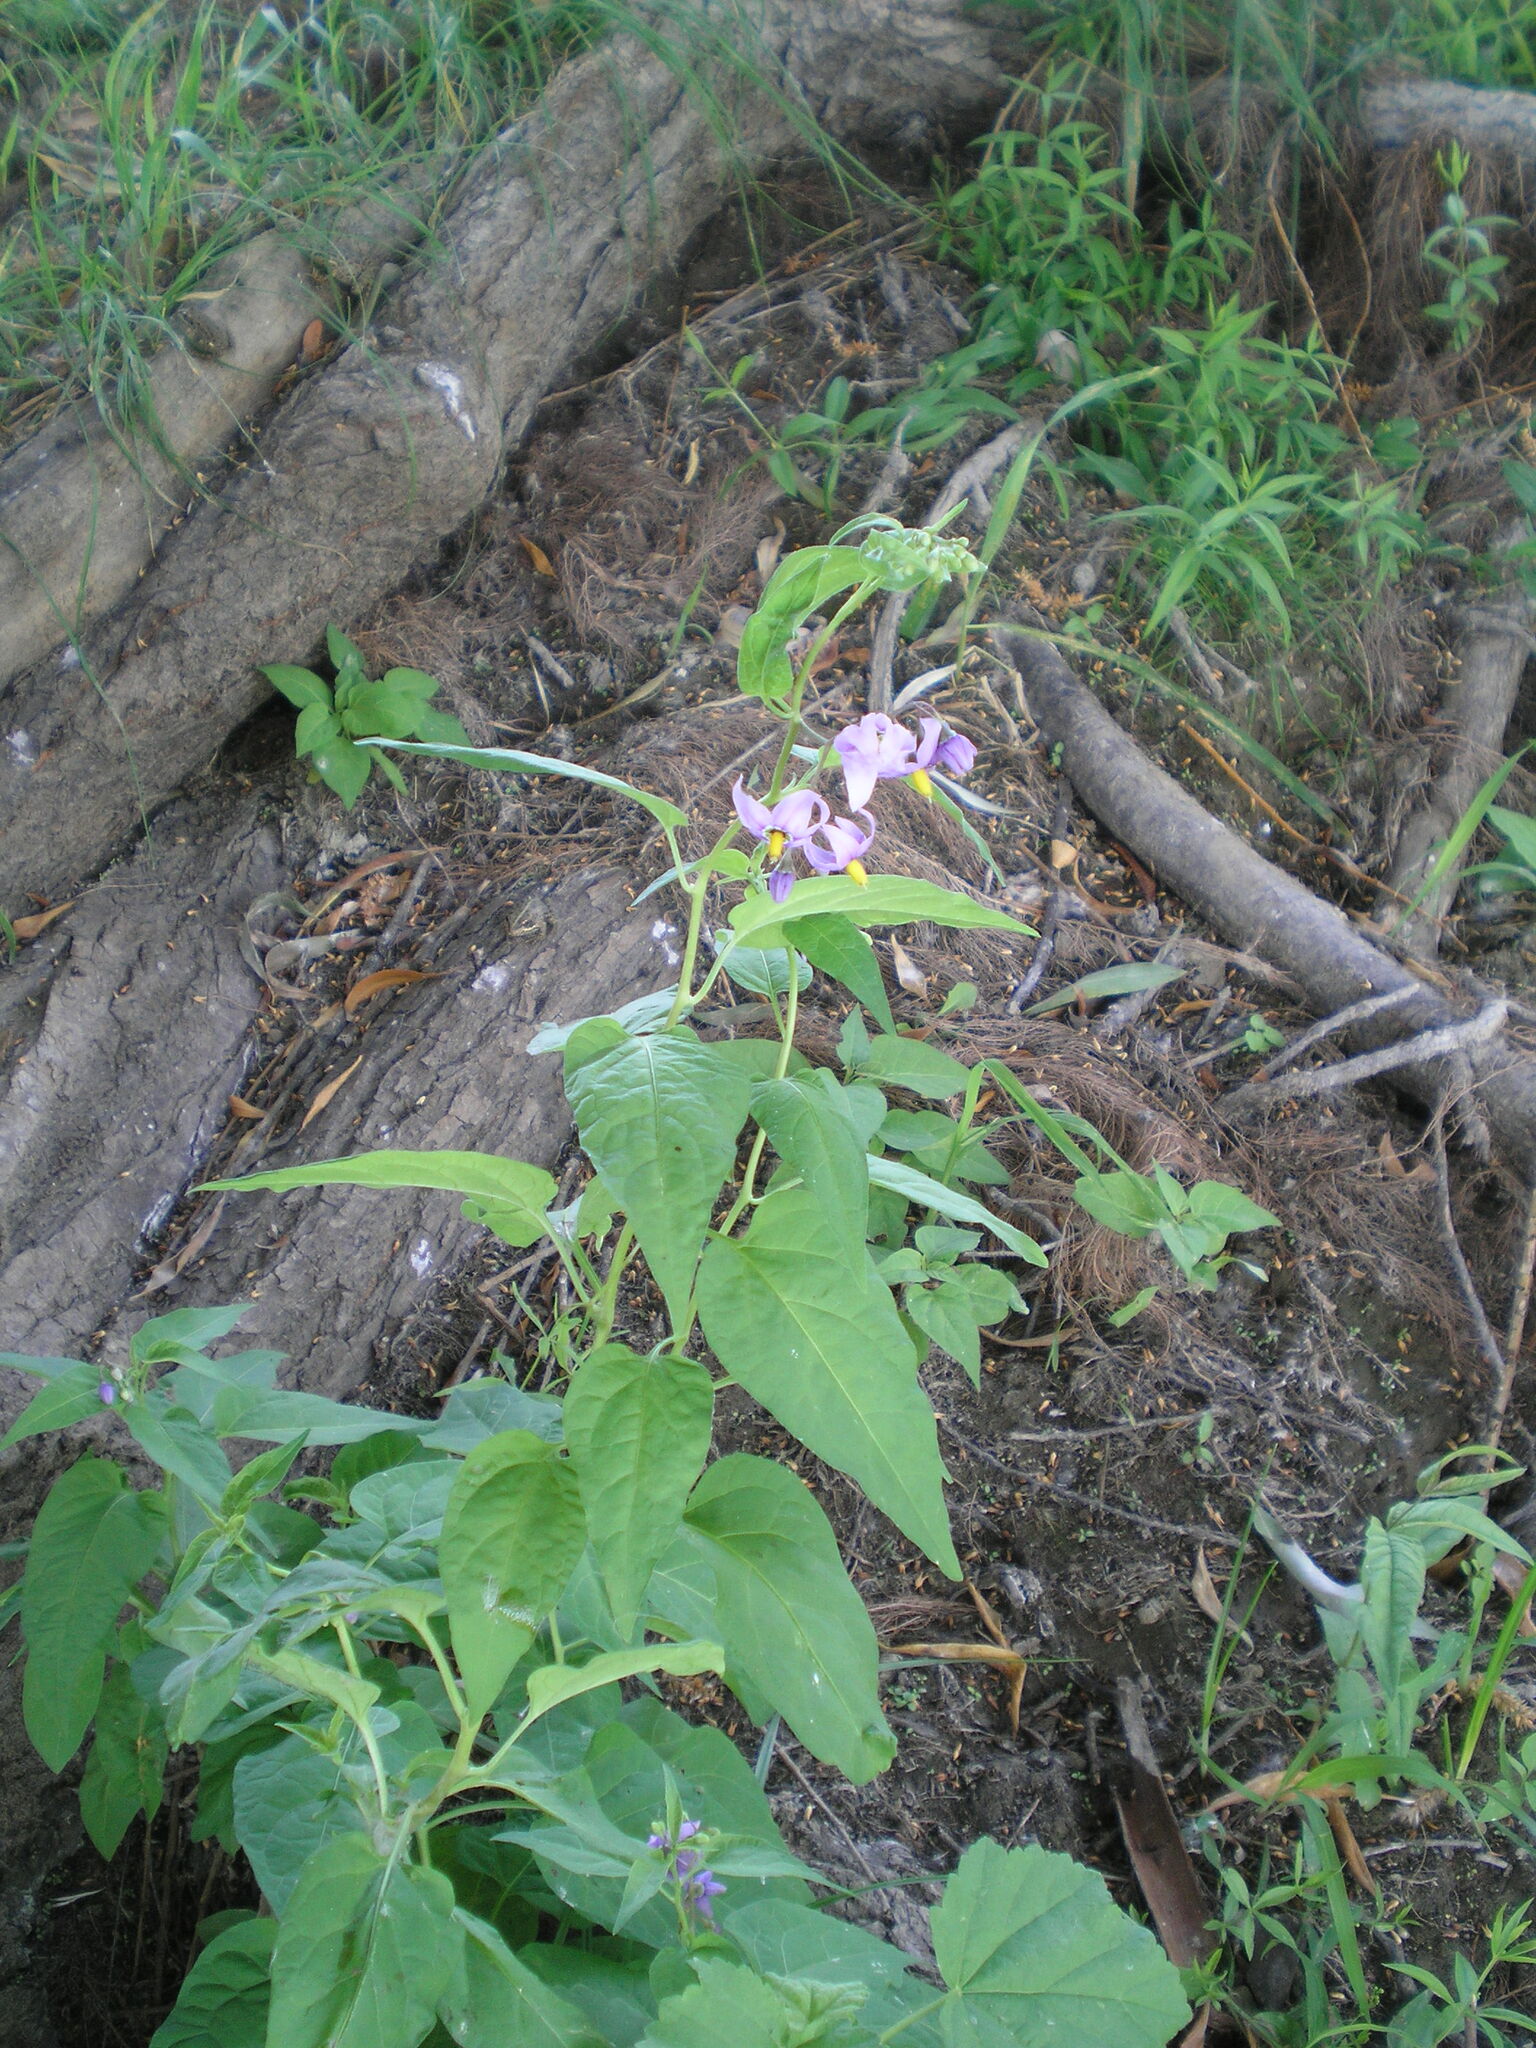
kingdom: Plantae
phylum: Tracheophyta
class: Magnoliopsida
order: Solanales
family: Solanaceae
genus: Solanum
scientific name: Solanum dulcamara
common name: Climbing nightshade
